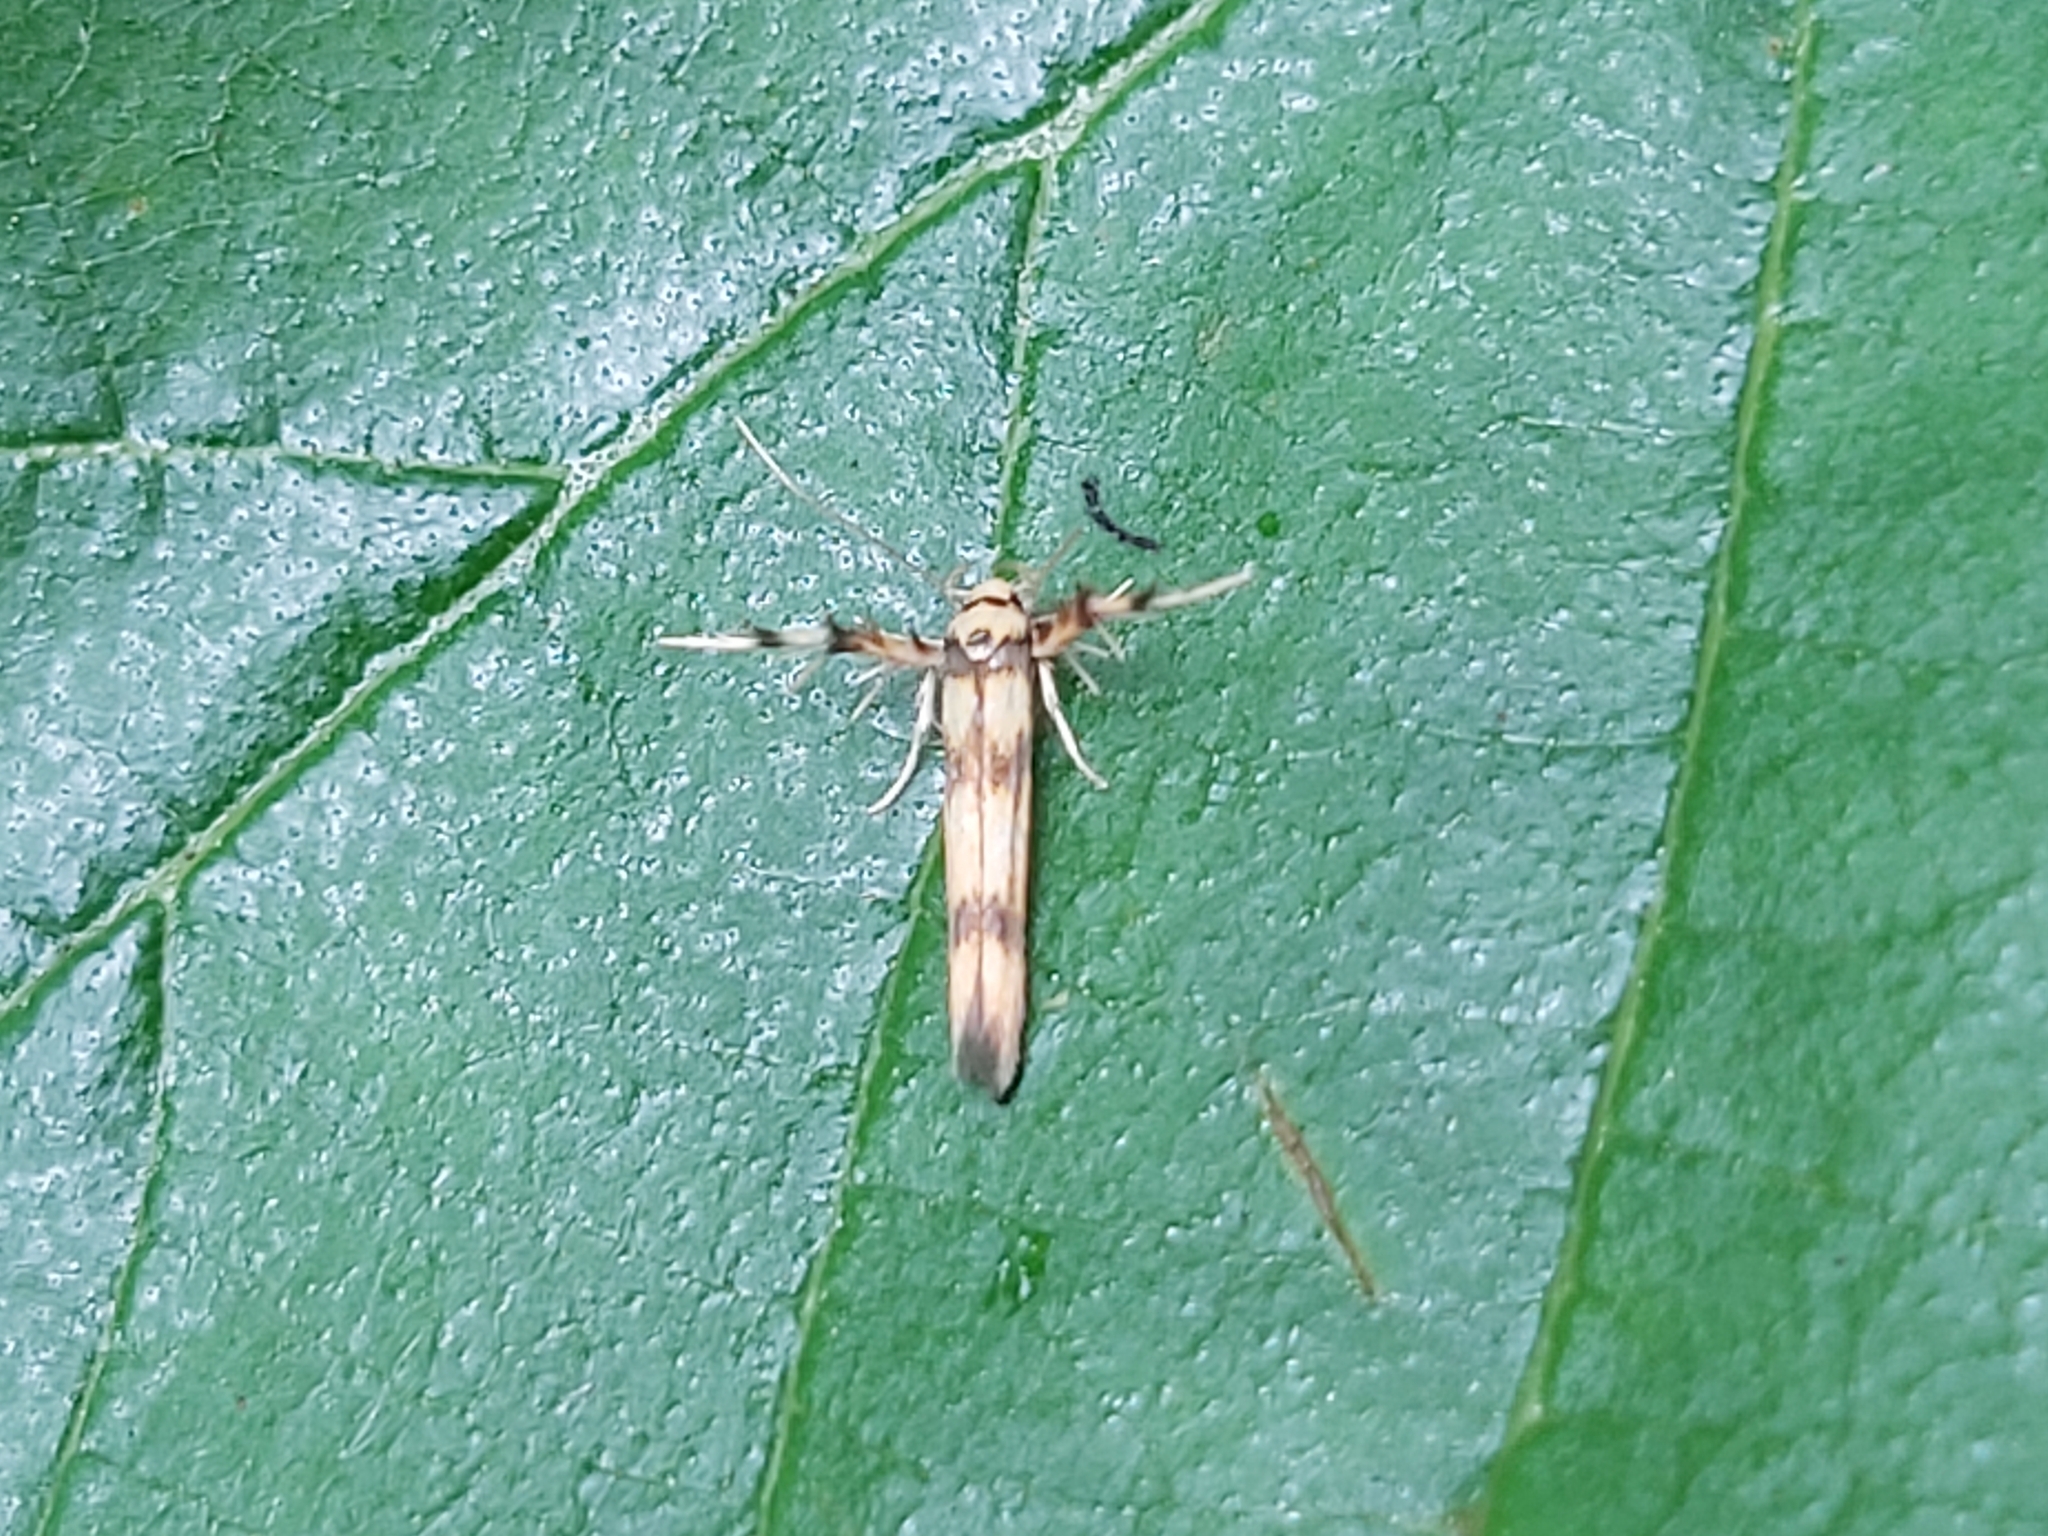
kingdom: Animalia
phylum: Arthropoda
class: Insecta
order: Lepidoptera
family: Stathmopodidae
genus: Stathmopoda
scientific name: Stathmopoda pedella
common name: Alder signal
